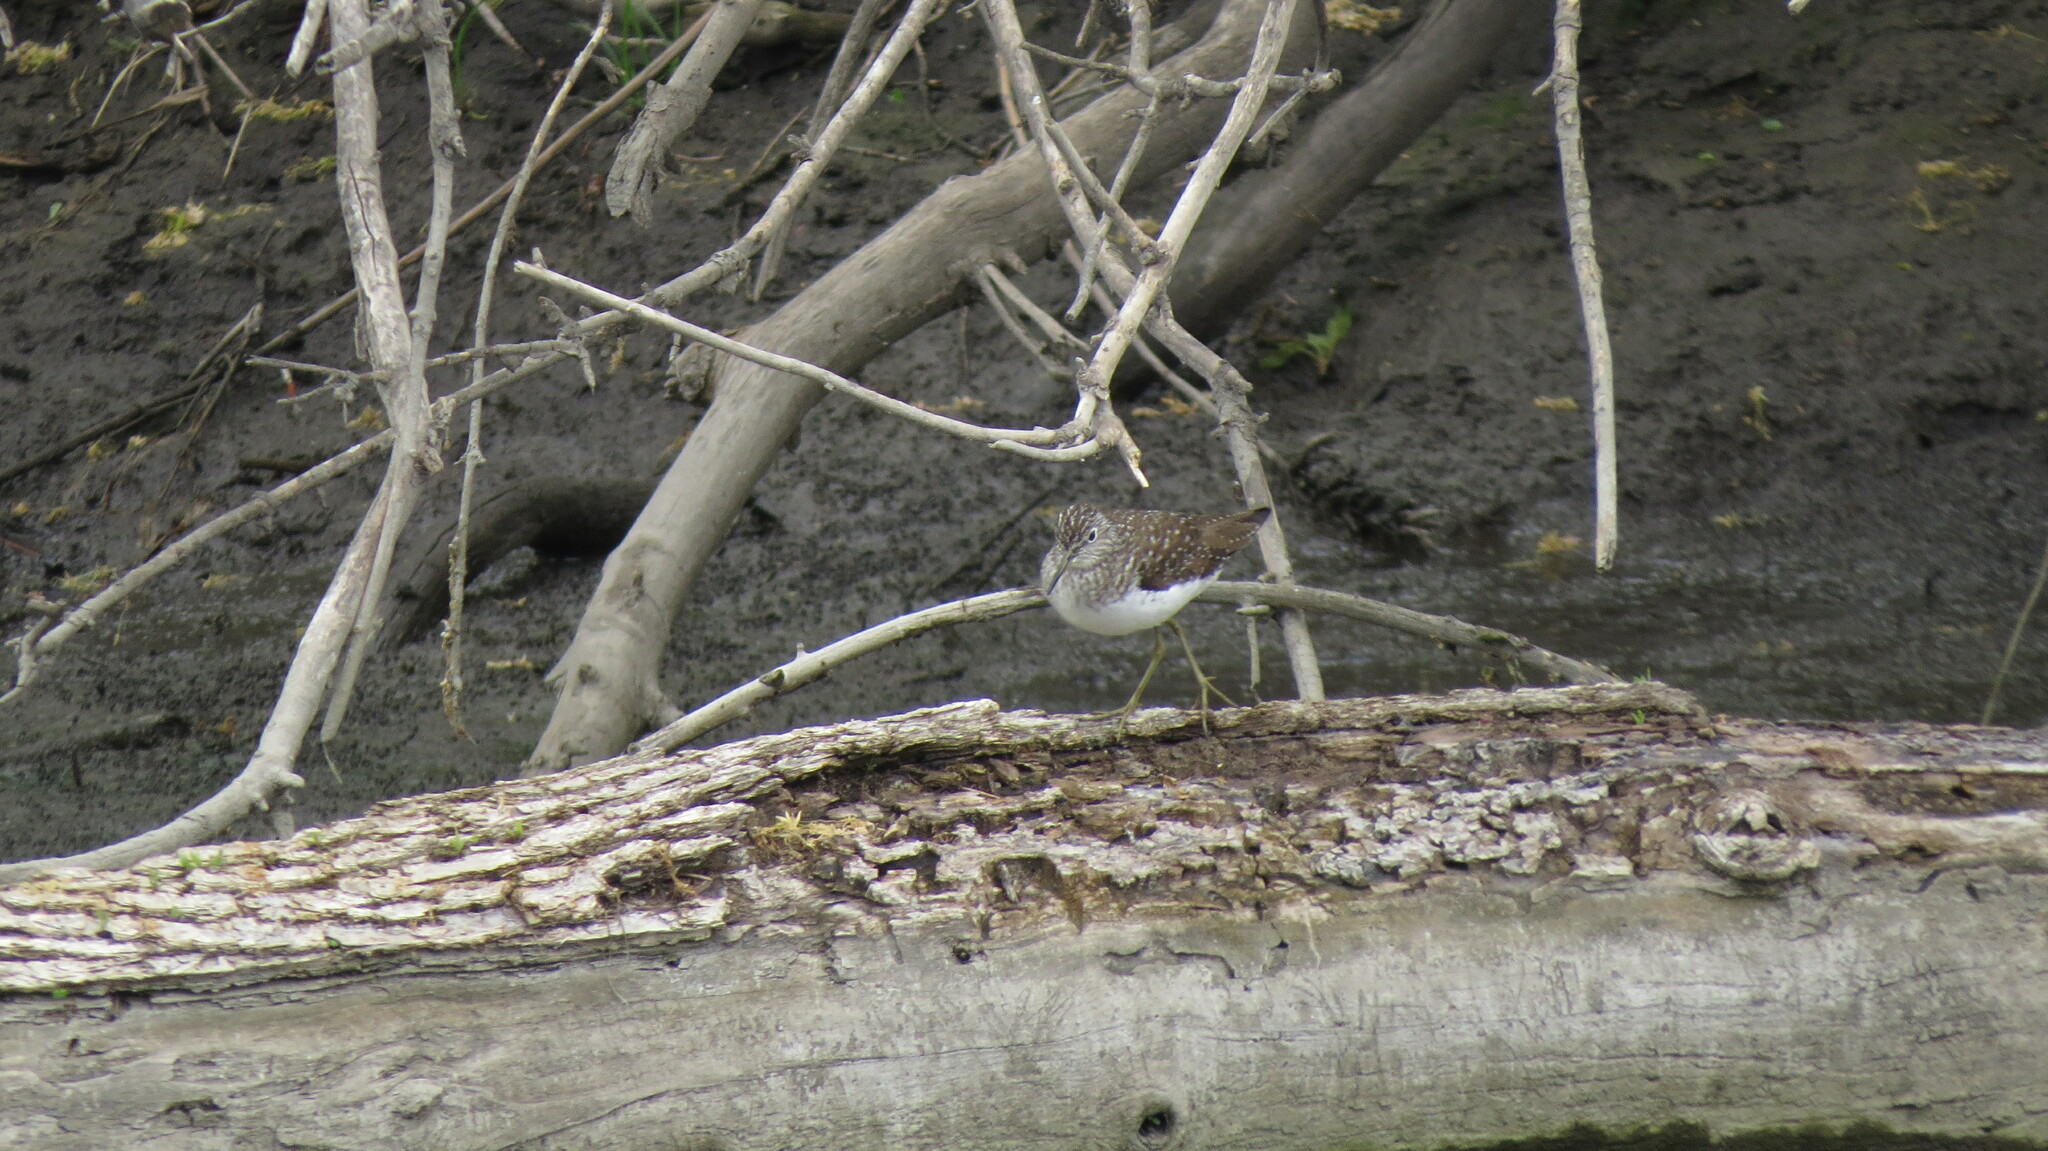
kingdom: Animalia
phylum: Chordata
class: Aves
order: Charadriiformes
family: Scolopacidae
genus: Tringa
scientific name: Tringa solitaria
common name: Solitary sandpiper
